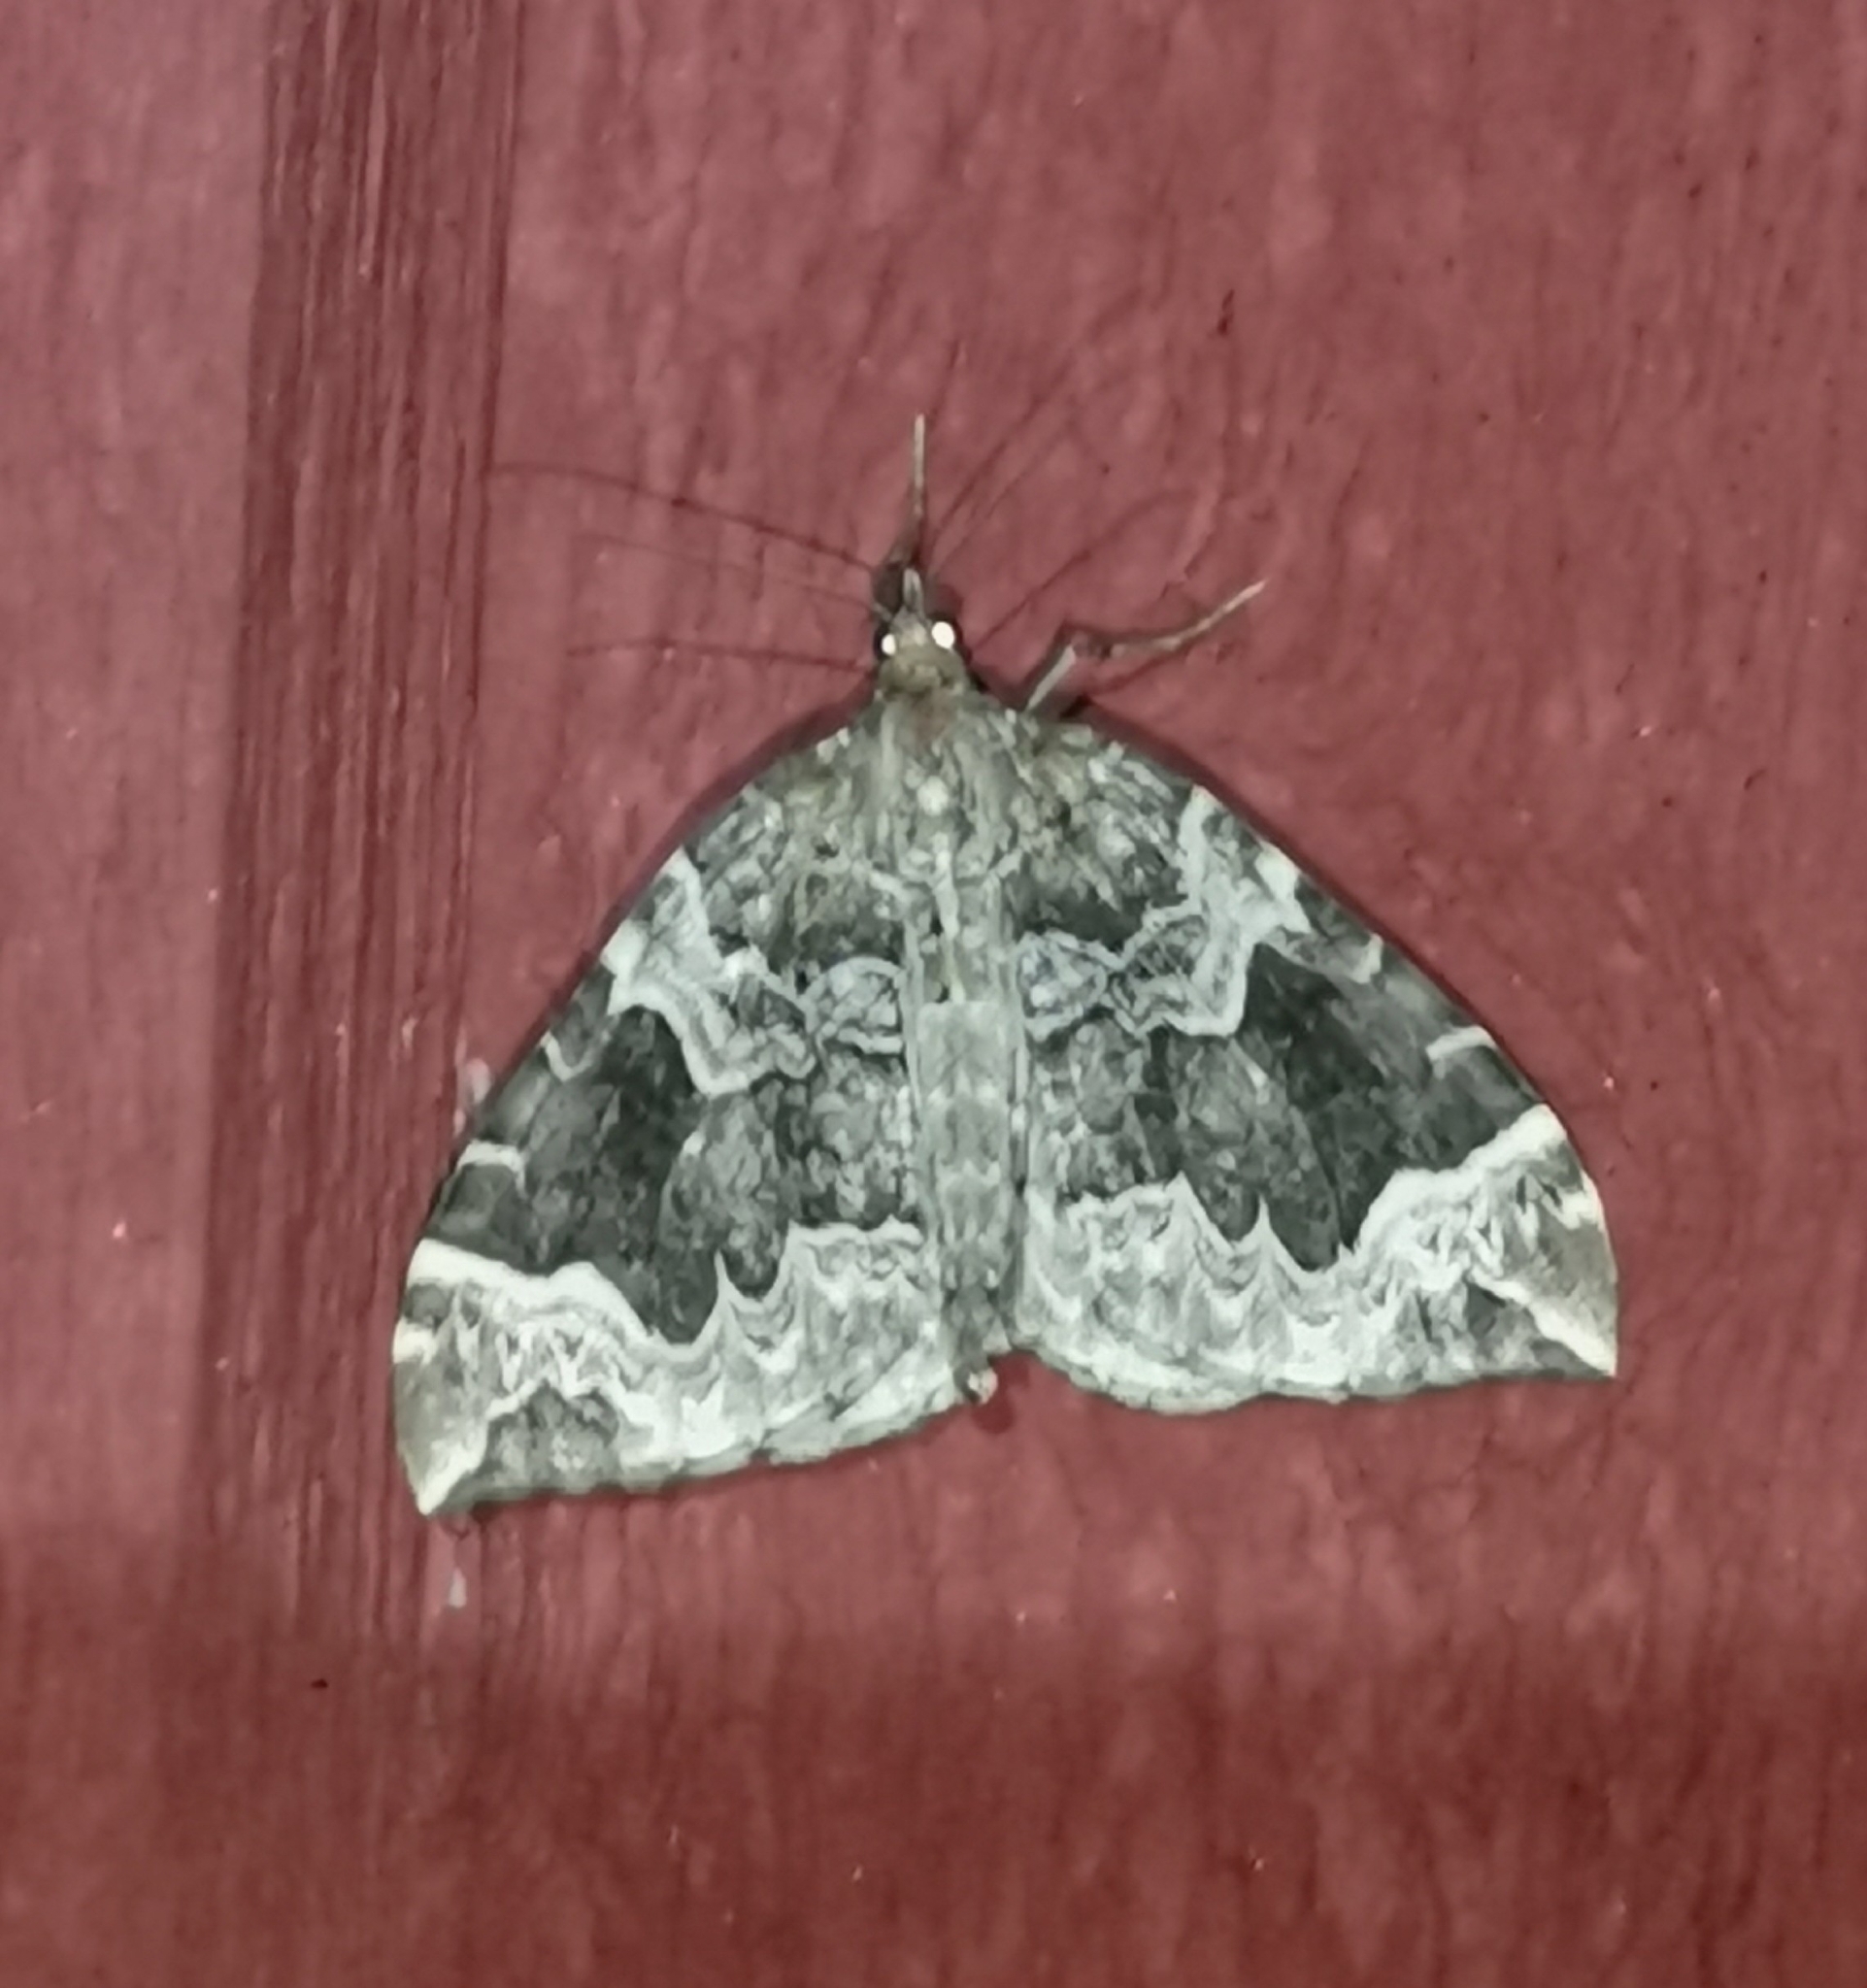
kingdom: Animalia
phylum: Arthropoda
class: Insecta
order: Lepidoptera
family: Geometridae
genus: Eulithis
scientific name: Eulithis prunata
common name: Phoenix
